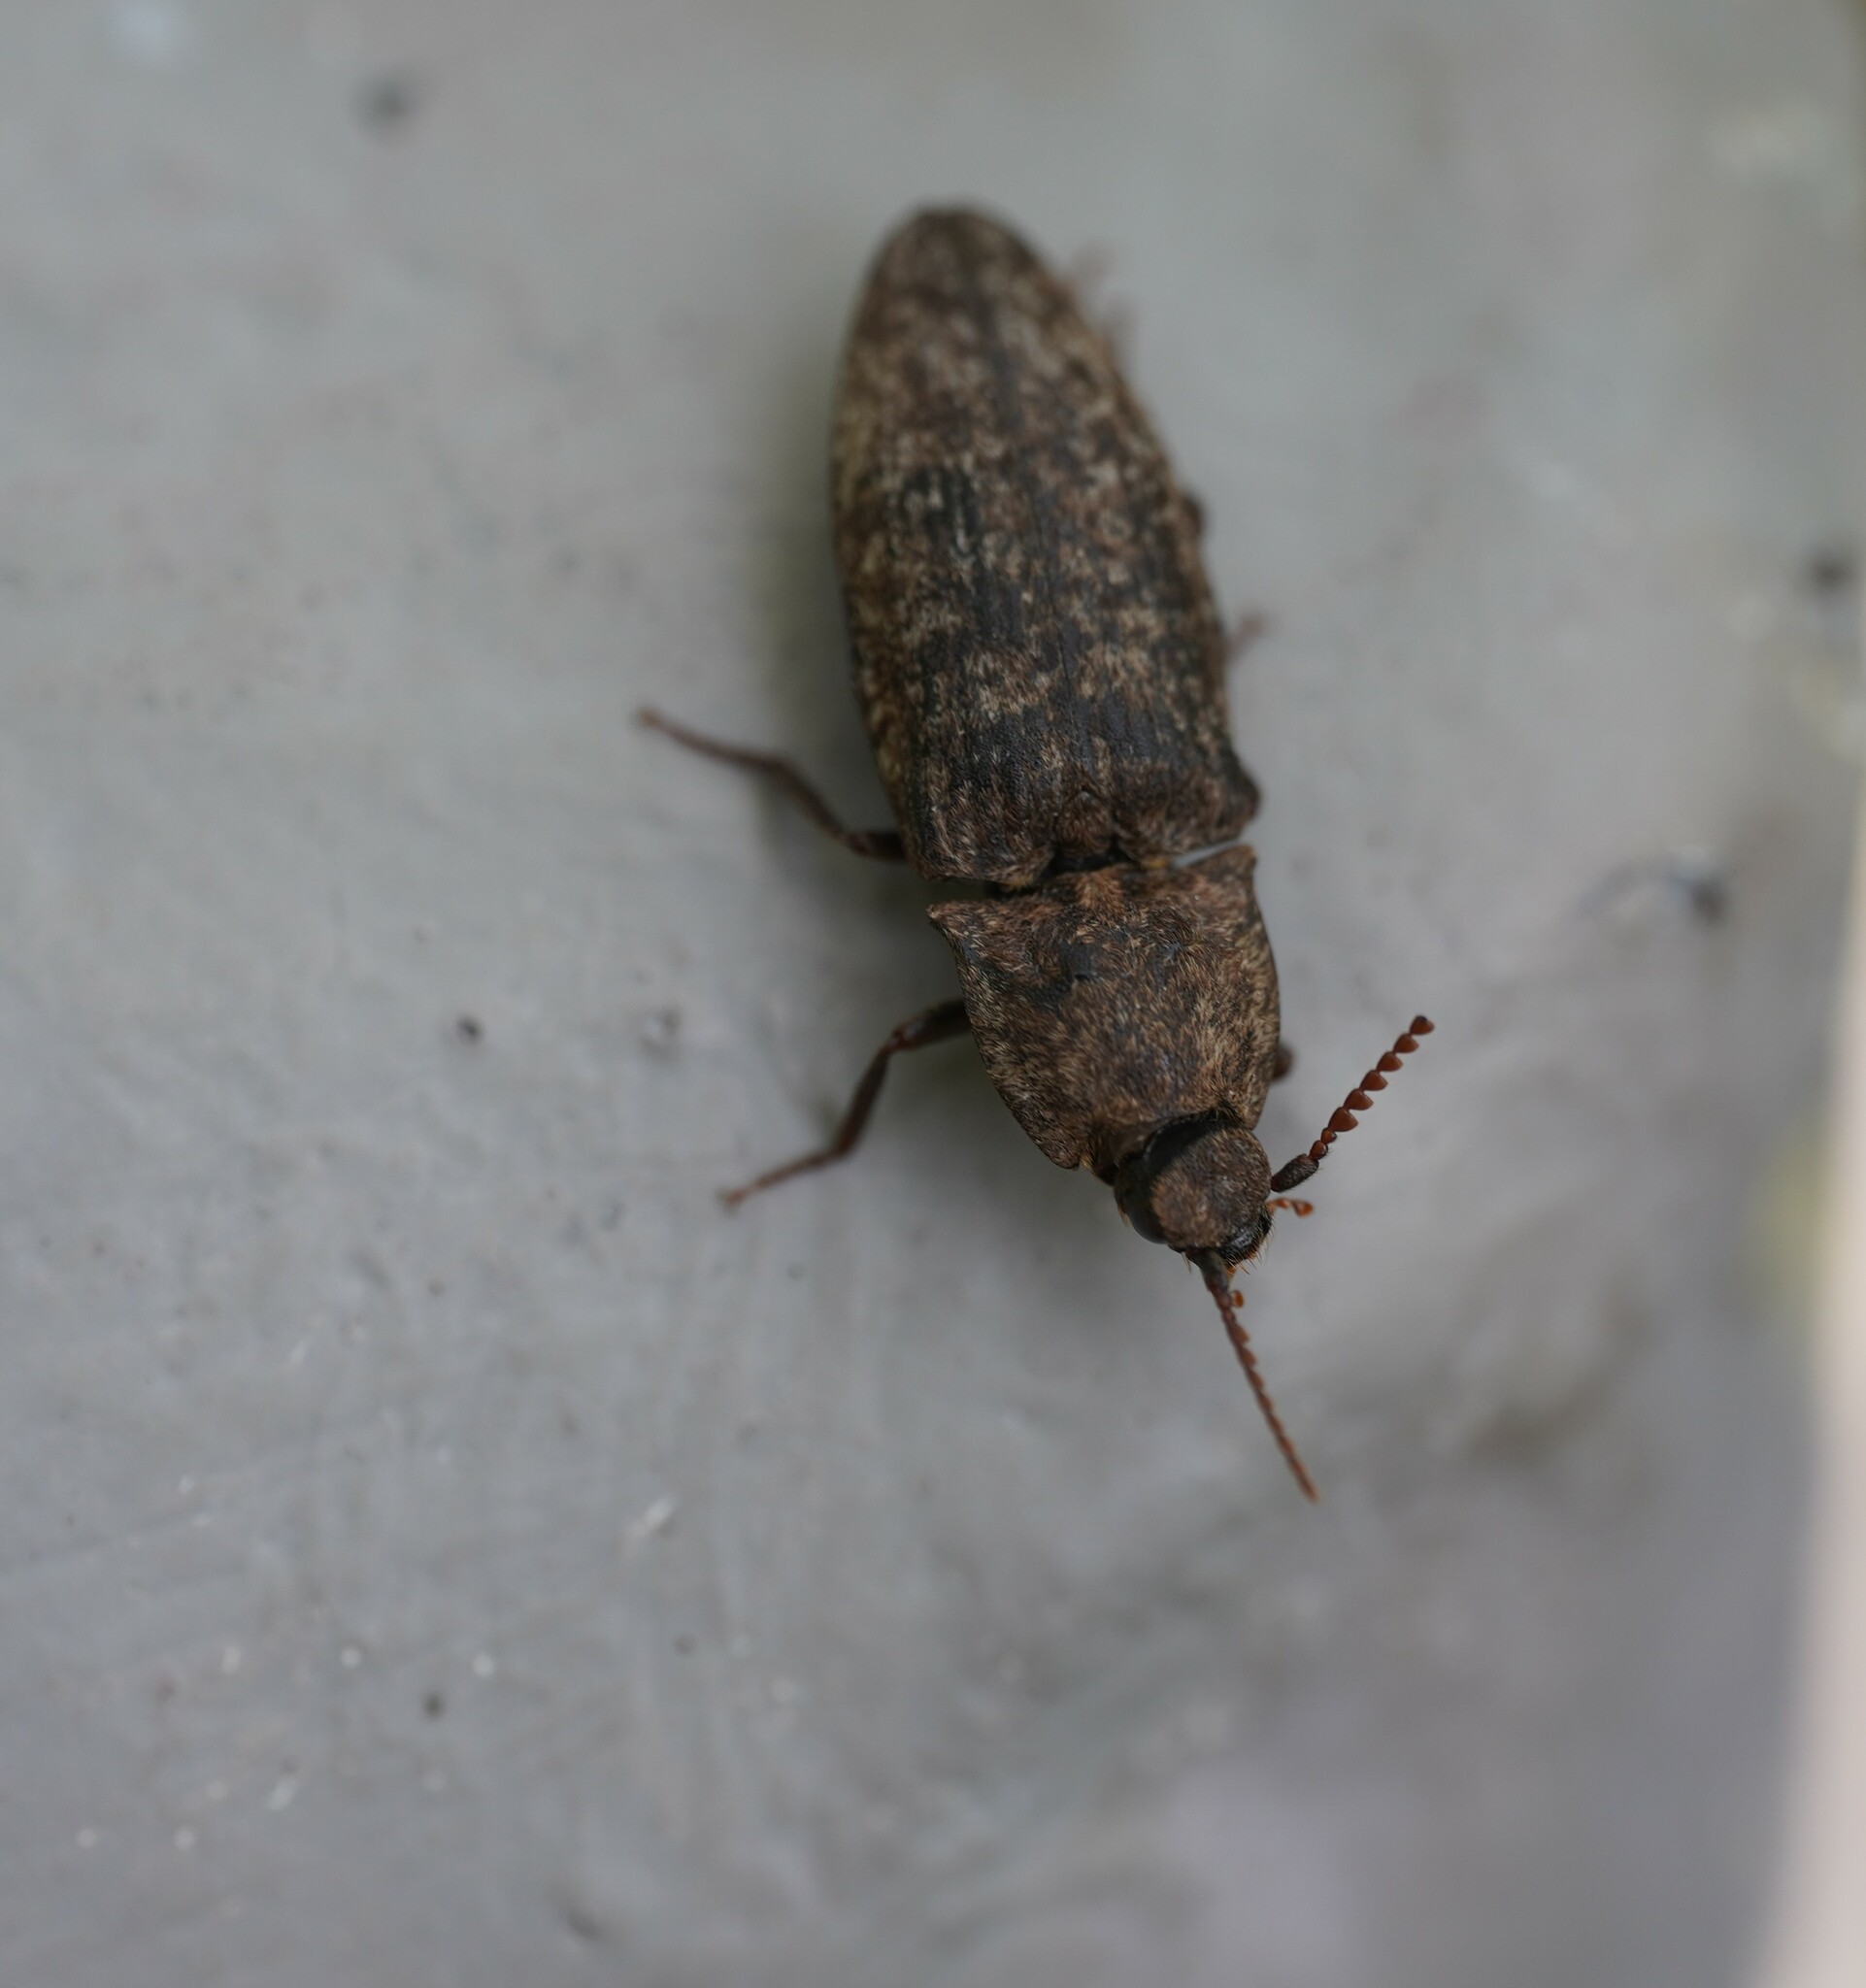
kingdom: Animalia
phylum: Arthropoda
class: Insecta
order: Coleoptera
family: Elateridae
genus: Agrypnus
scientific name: Agrypnus murinus
